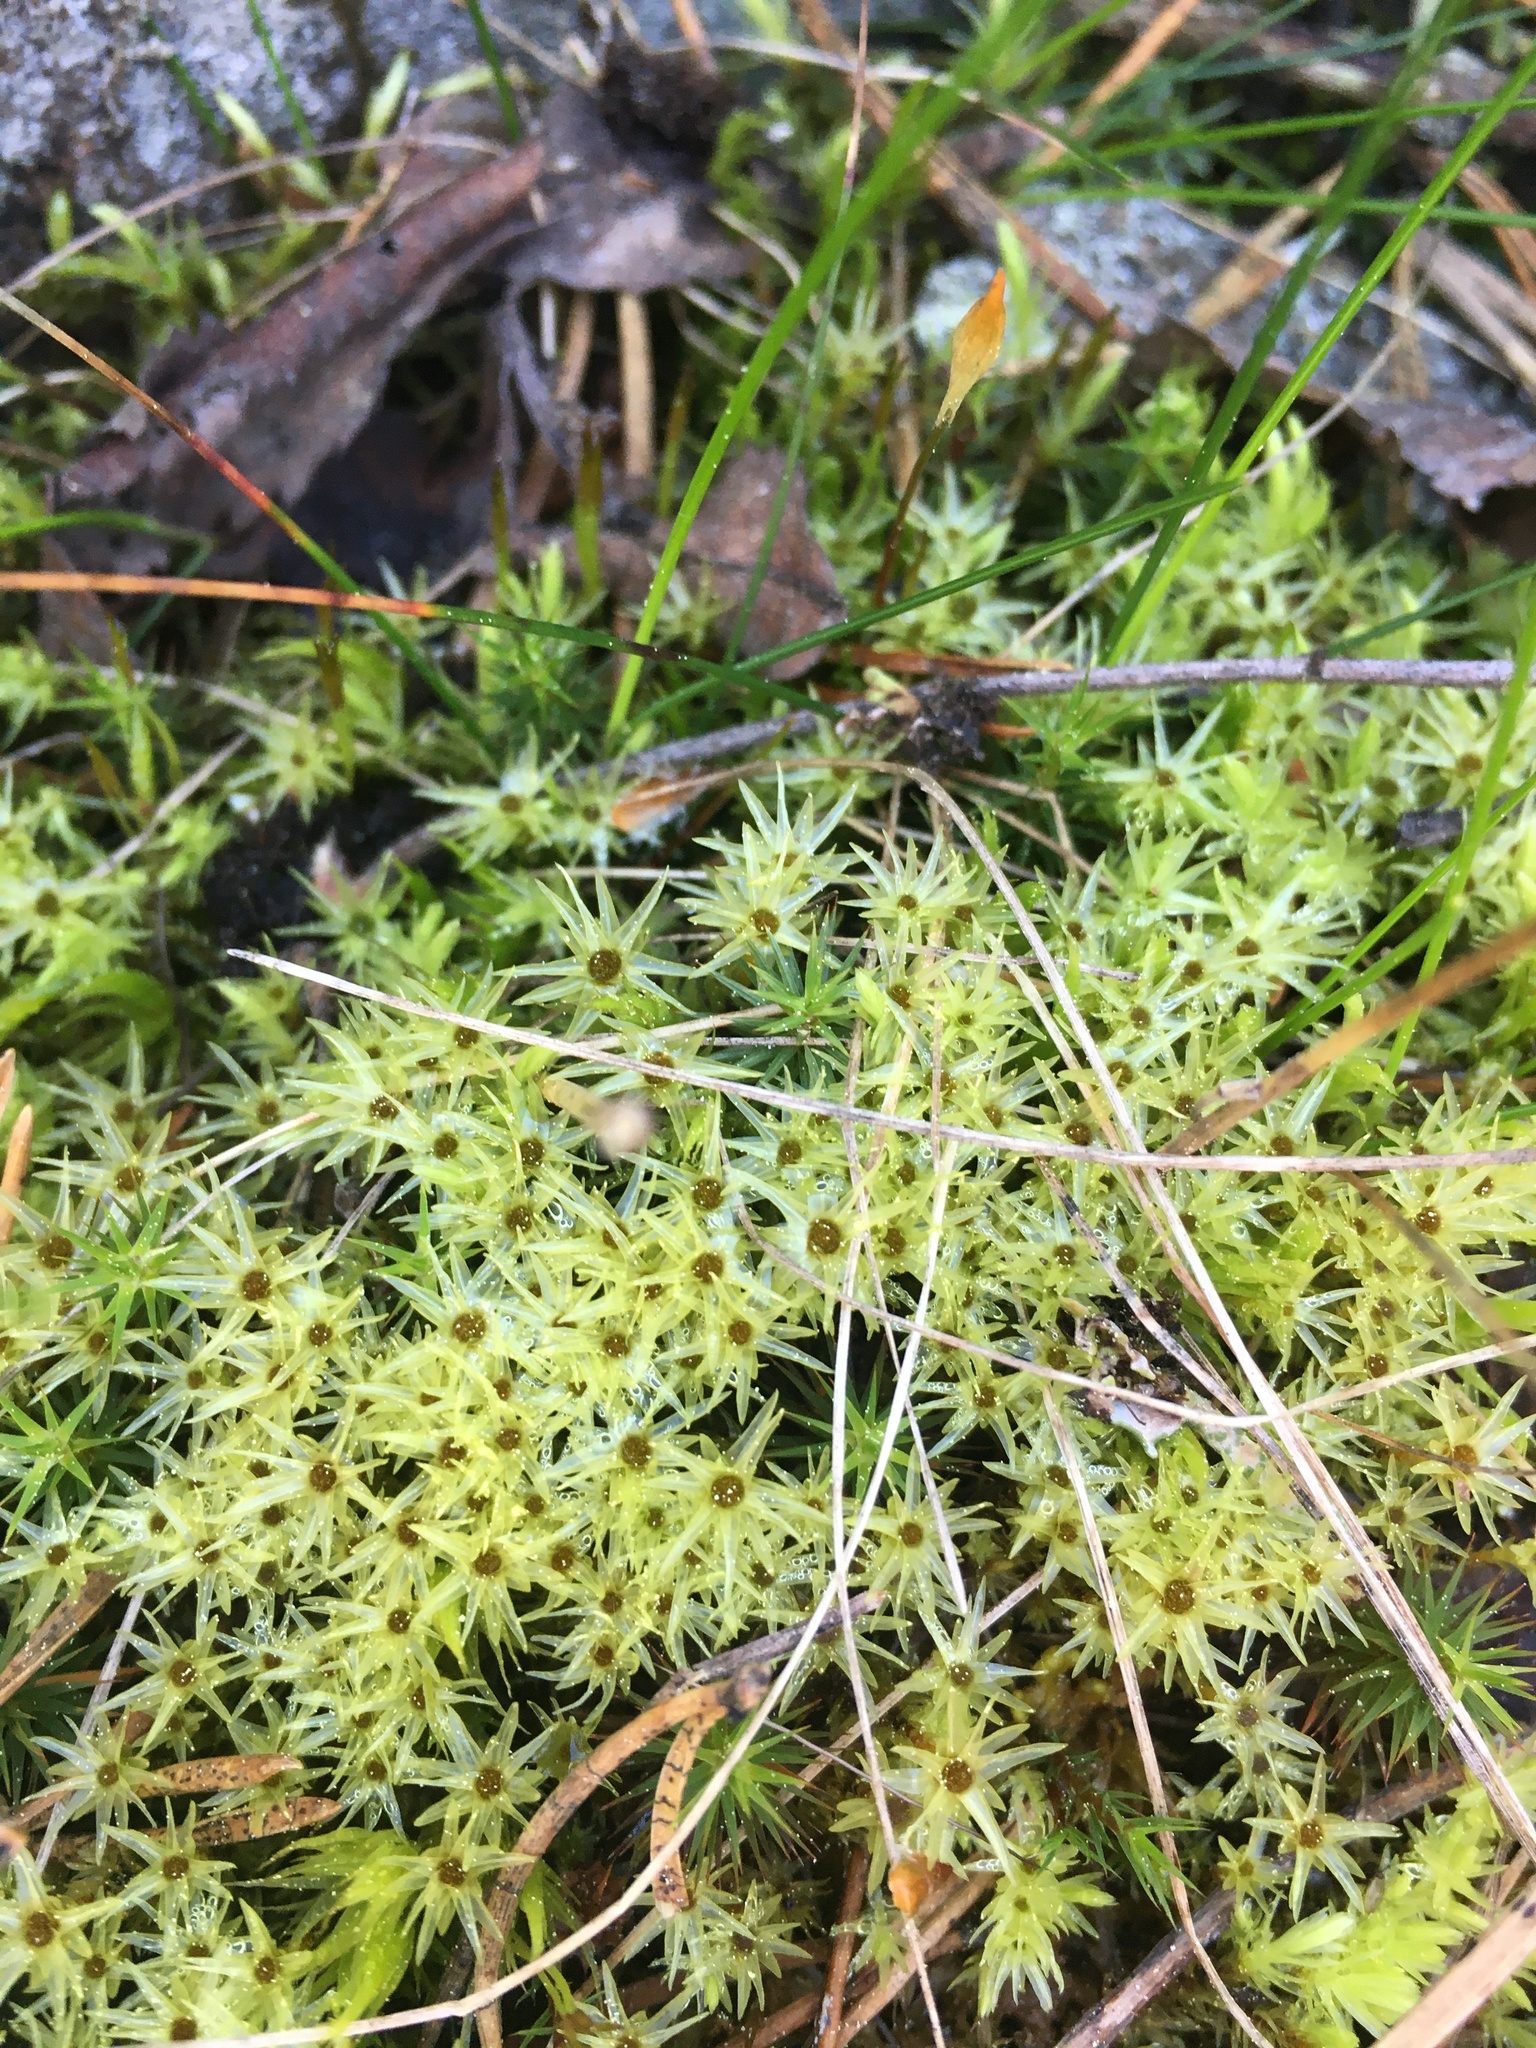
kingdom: Plantae
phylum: Bryophyta
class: Bryopsida
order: Aulacomniales
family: Aulacomniaceae
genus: Aulacomnium
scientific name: Aulacomnium palustre
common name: Bog groove-moss
